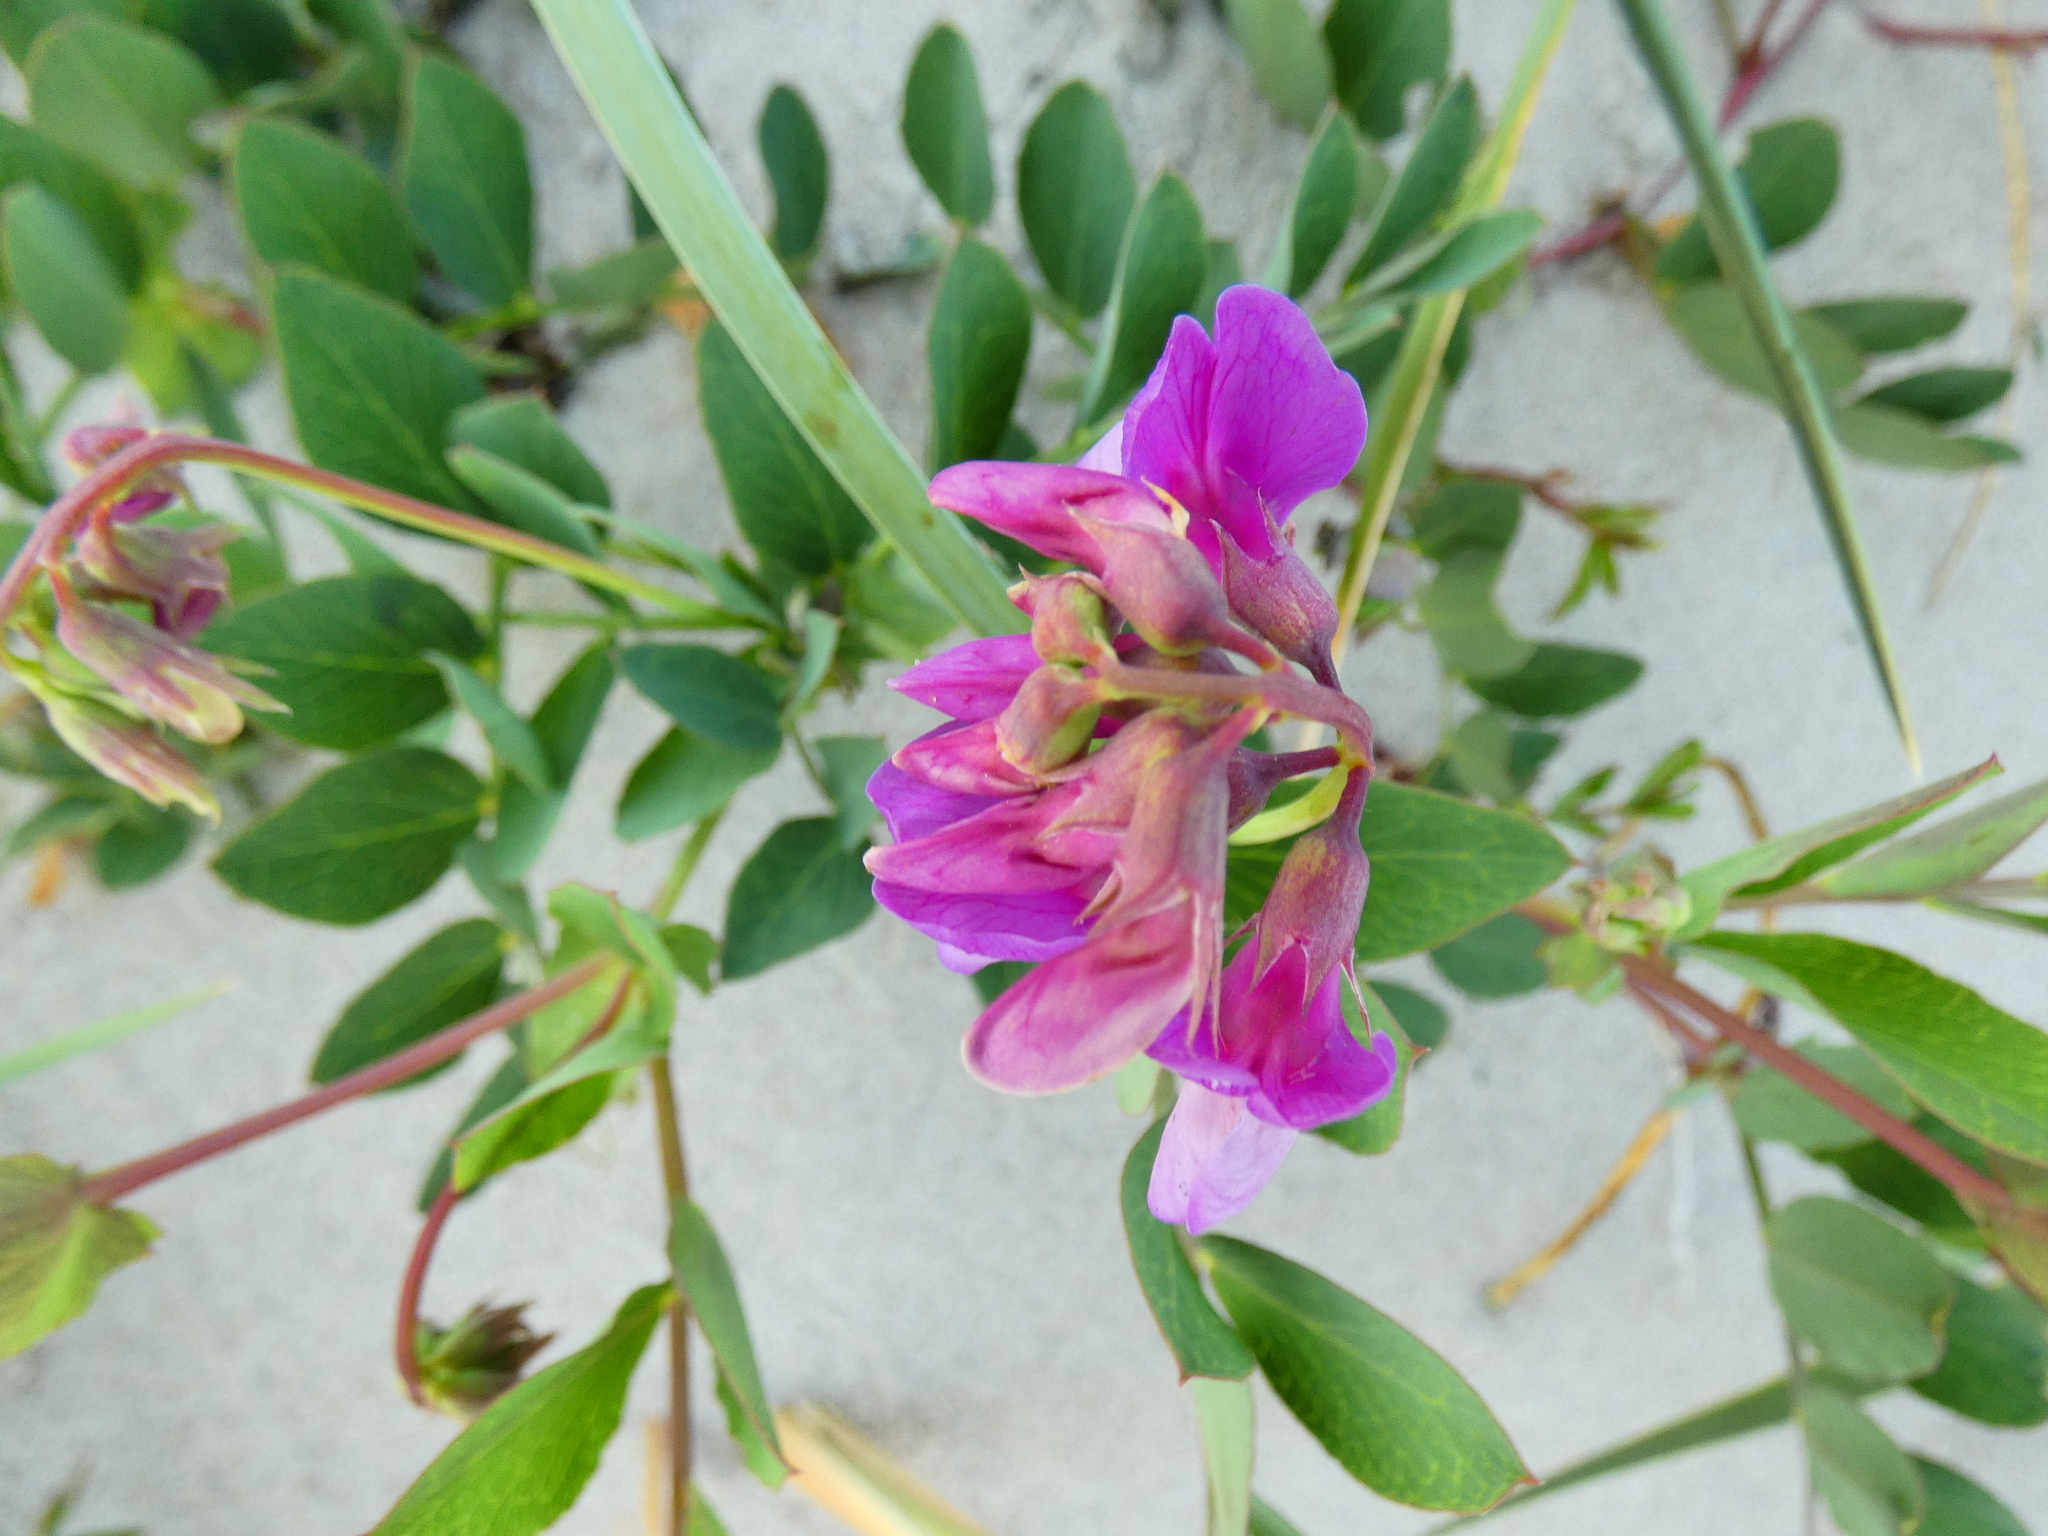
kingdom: Plantae
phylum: Tracheophyta
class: Magnoliopsida
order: Fabales
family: Fabaceae
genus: Lathyrus
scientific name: Lathyrus japonicus
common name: Sea pea
